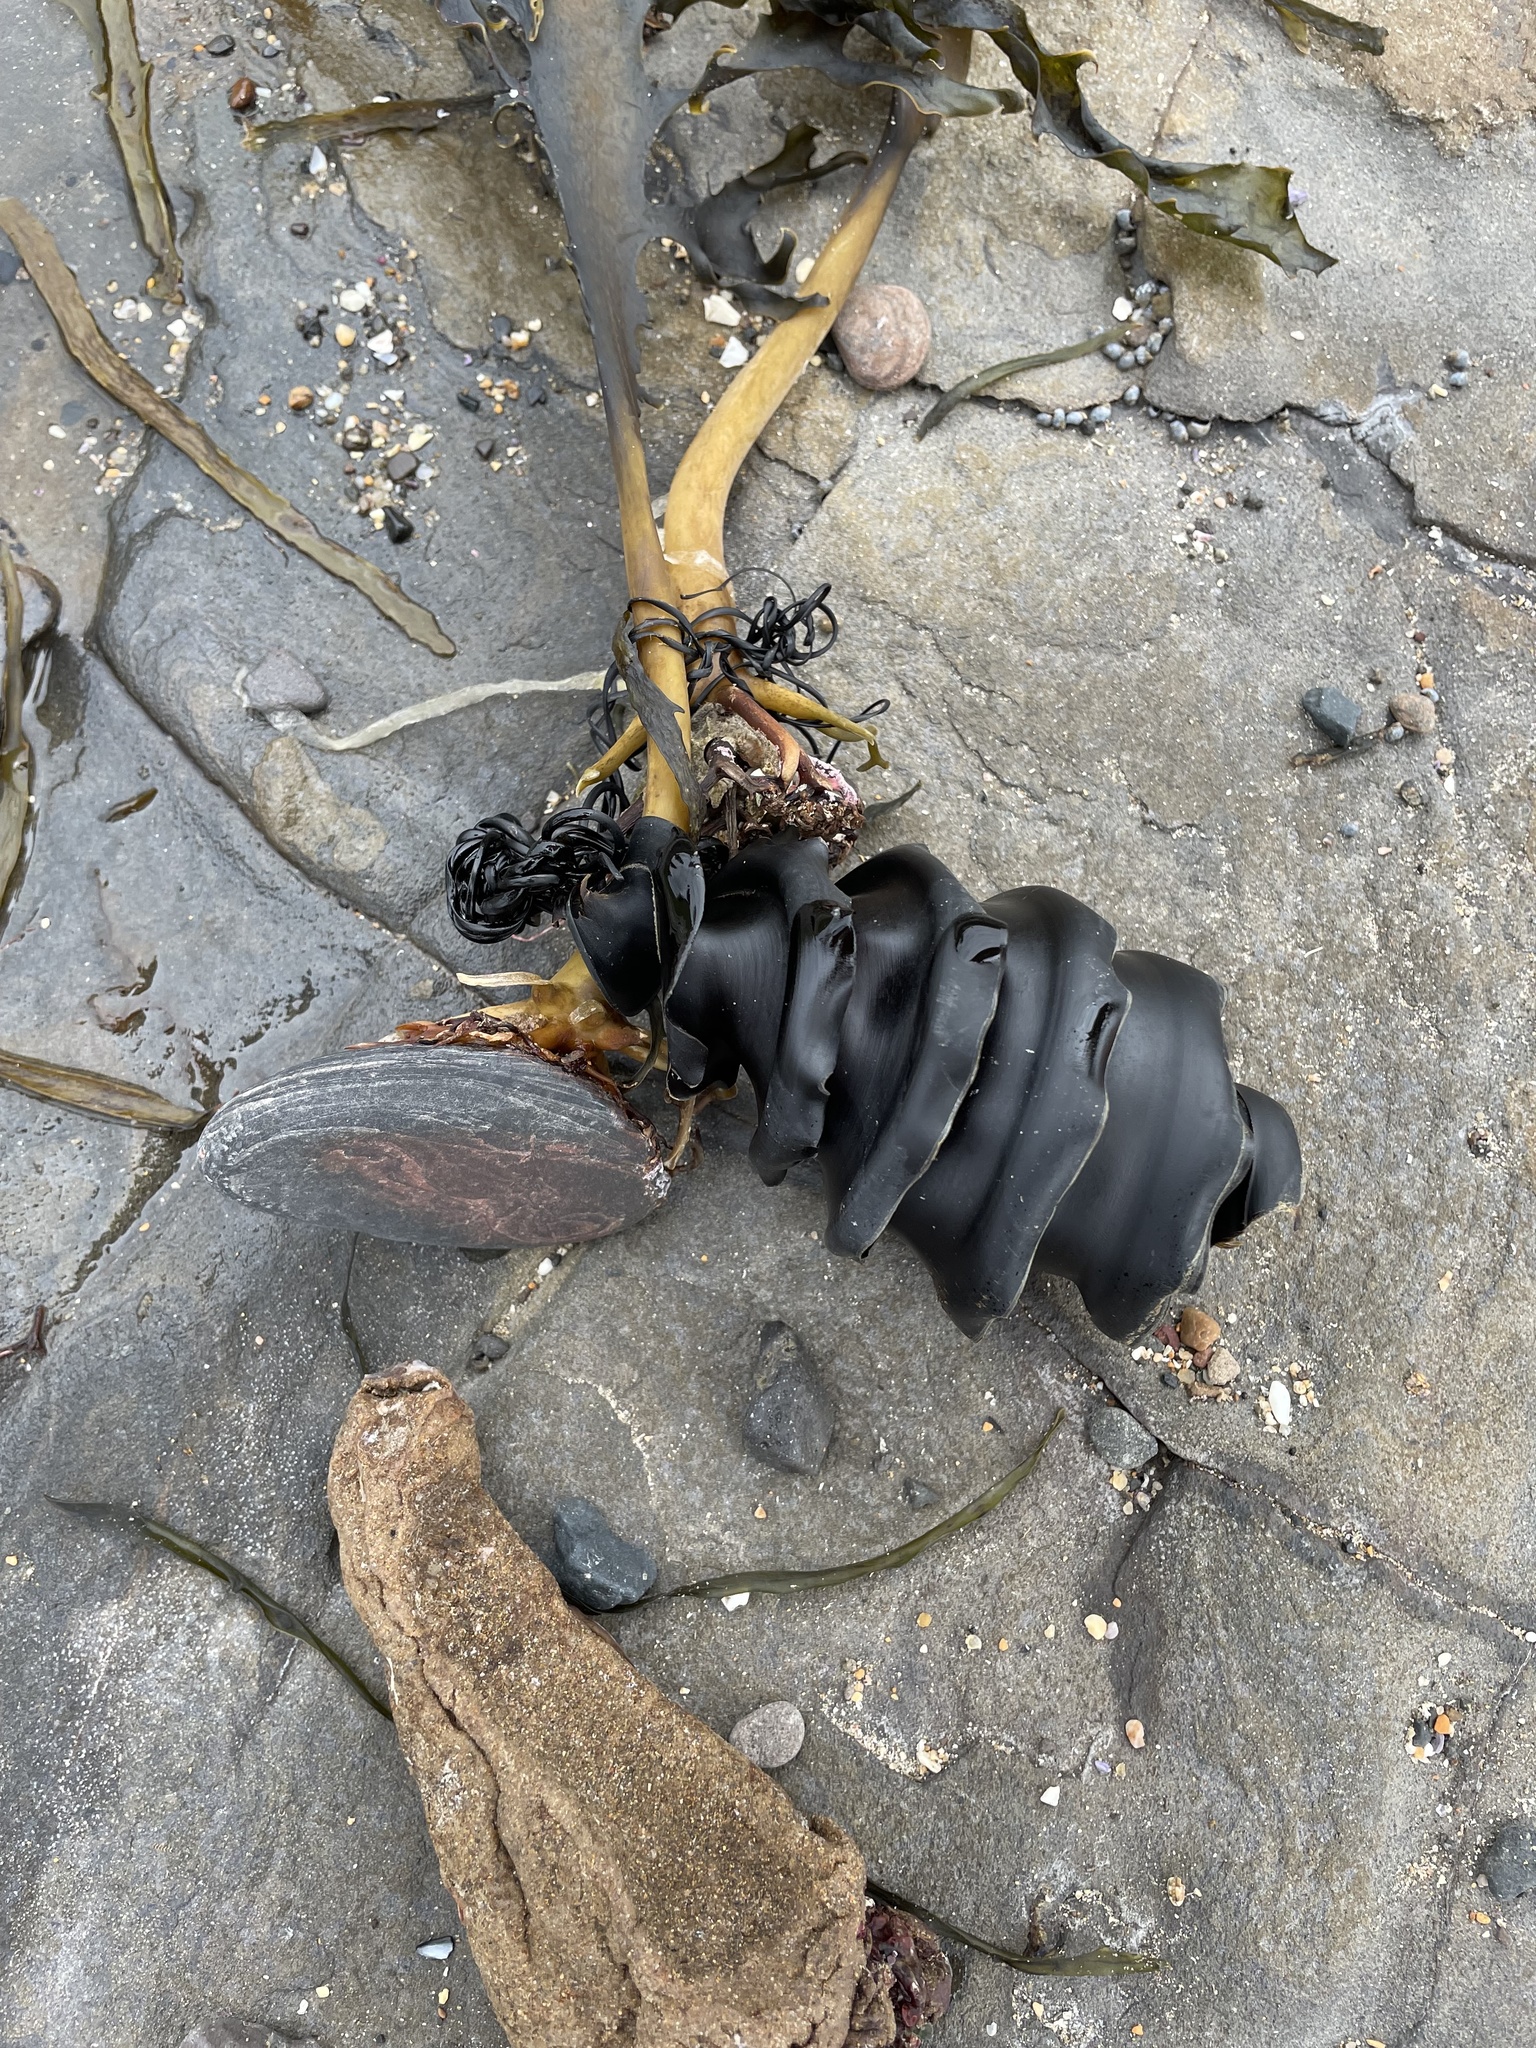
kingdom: Animalia
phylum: Chordata
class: Elasmobranchii
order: Heterodontiformes
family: Heterodontidae
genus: Heterodontus
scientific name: Heterodontus galeatus
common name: Crested bullhead shark
